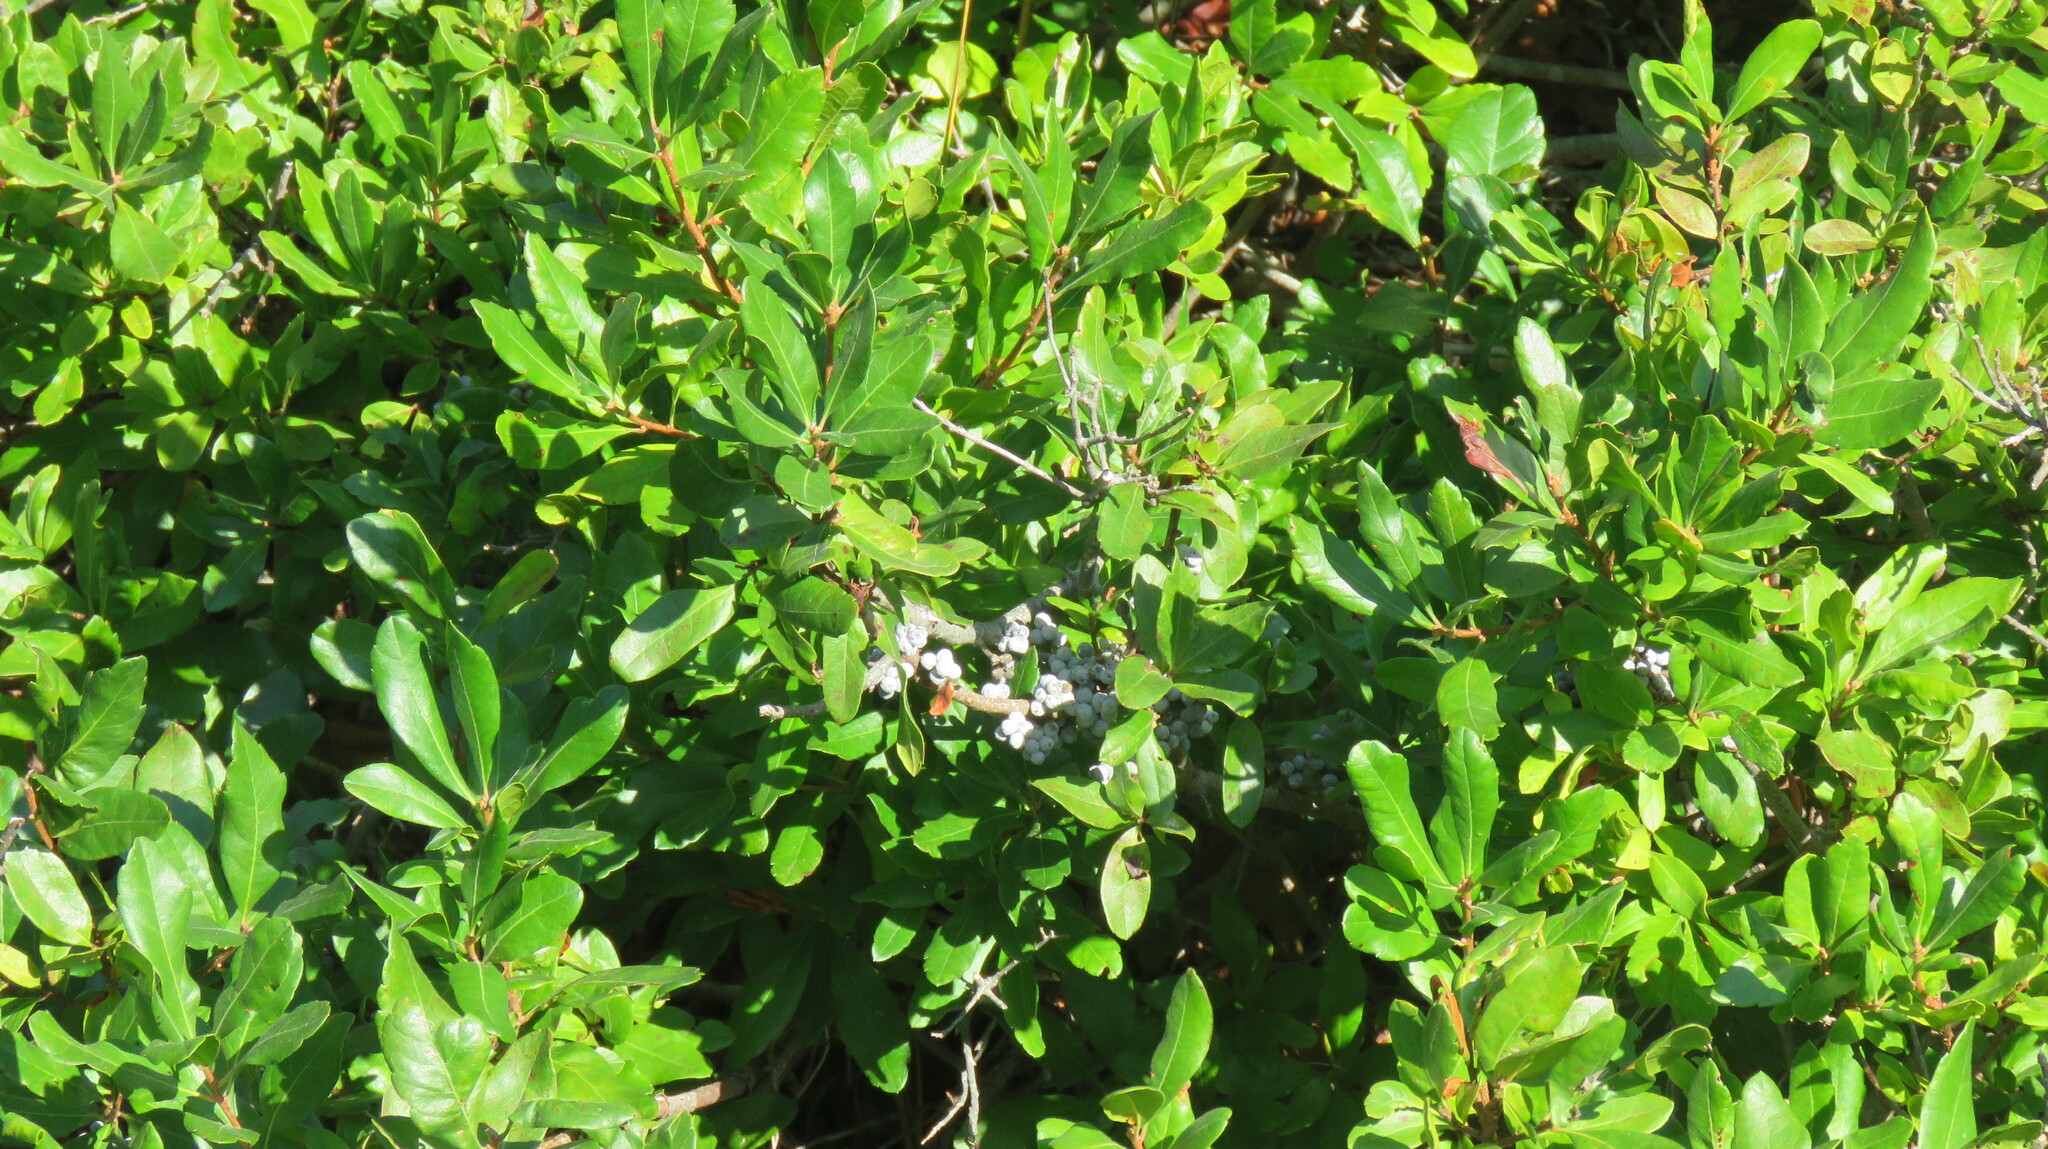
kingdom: Plantae
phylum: Tracheophyta
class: Magnoliopsida
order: Fagales
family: Myricaceae
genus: Morella
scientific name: Morella pensylvanica
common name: Northern bayberry
